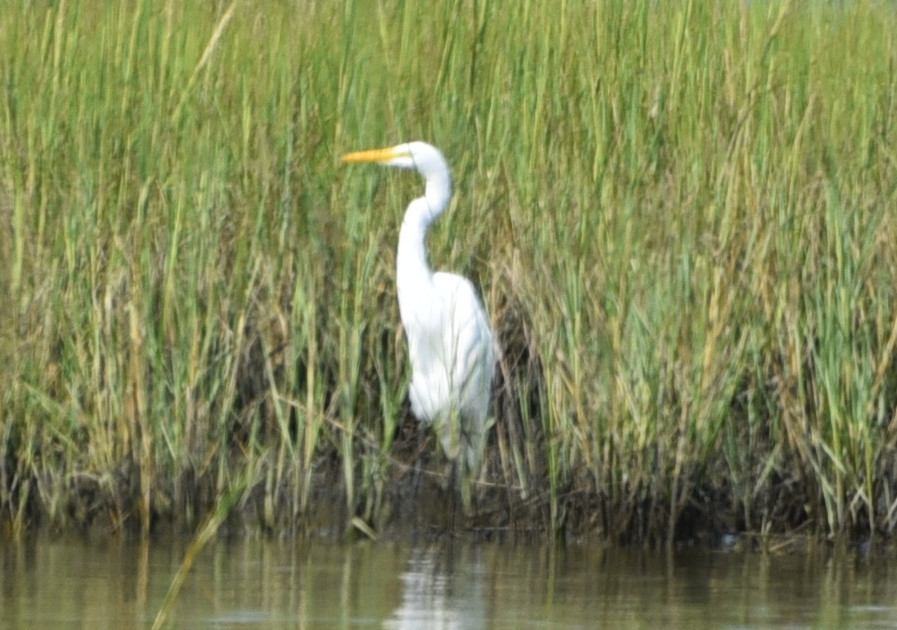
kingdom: Animalia
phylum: Chordata
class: Aves
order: Pelecaniformes
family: Ardeidae
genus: Ardea
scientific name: Ardea alba
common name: Great egret
